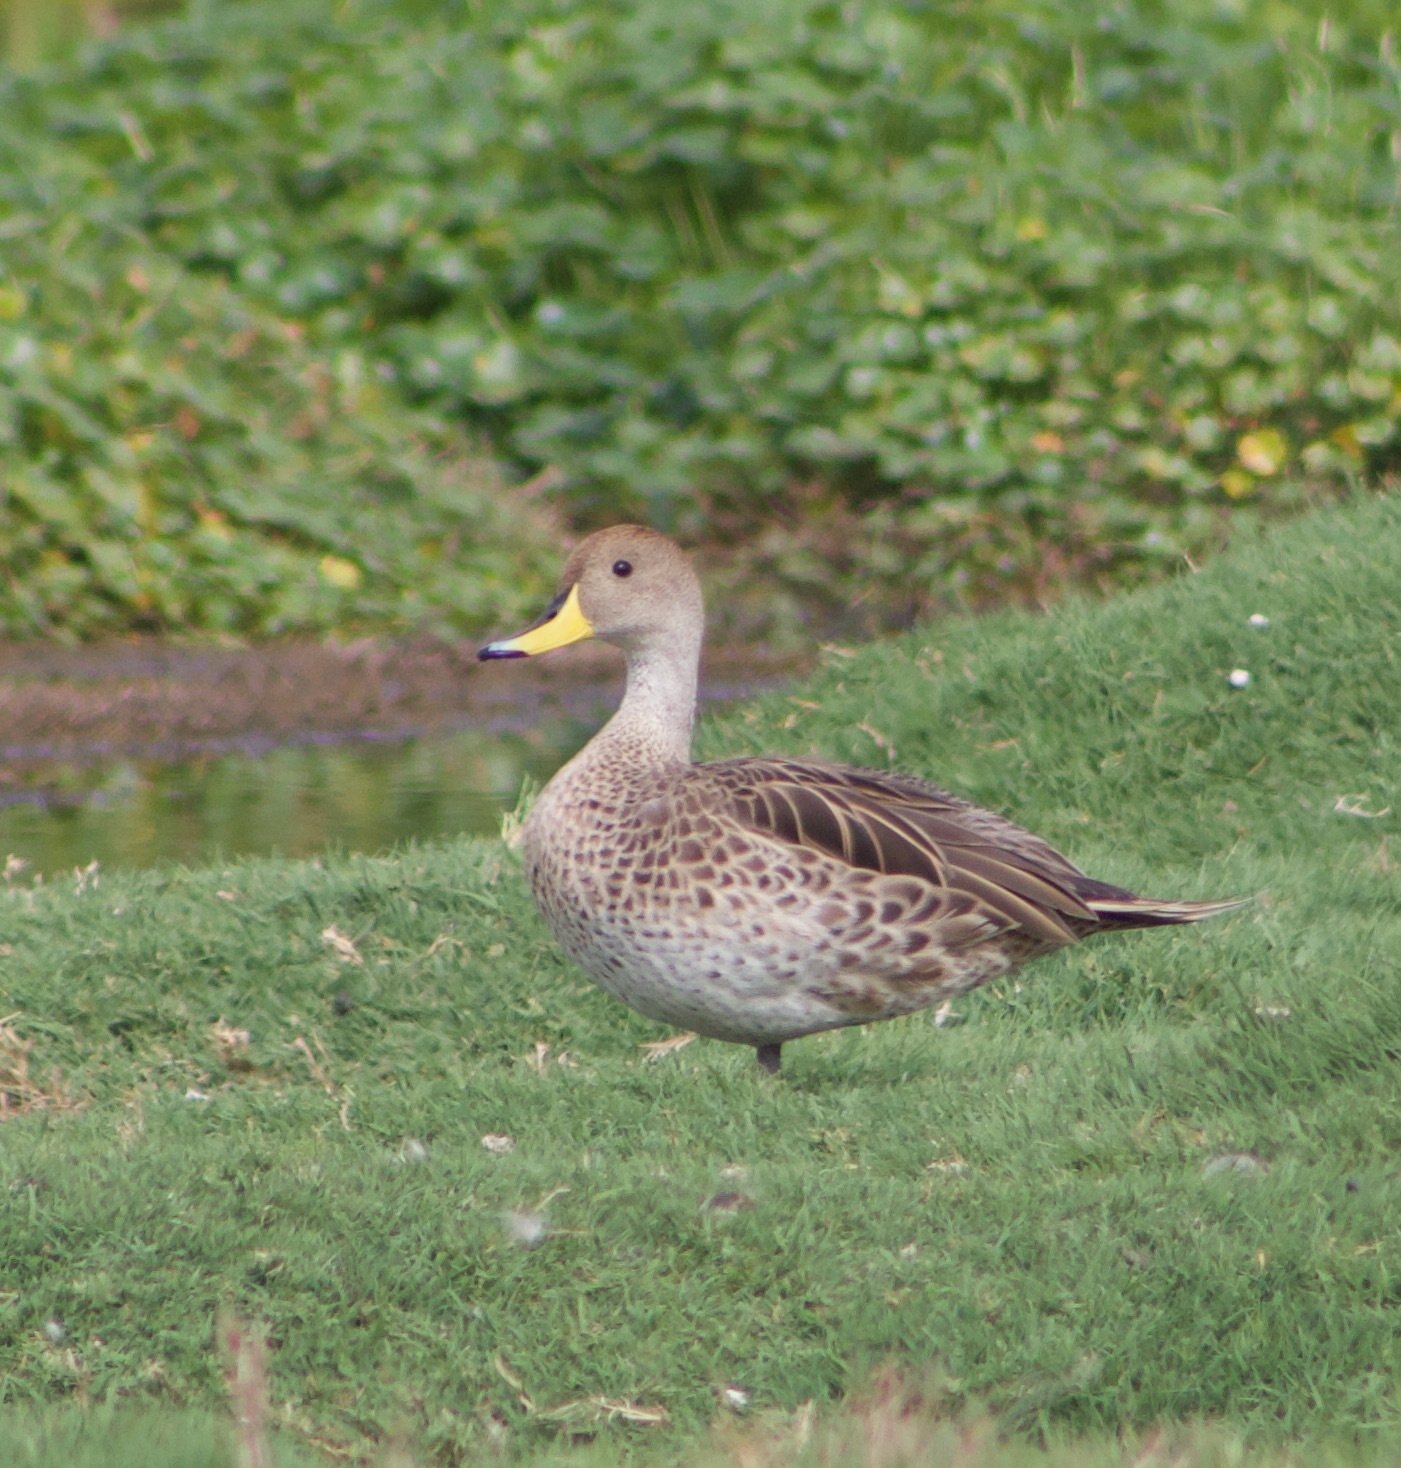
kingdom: Animalia
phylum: Chordata
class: Aves
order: Anseriformes
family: Anatidae
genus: Anas
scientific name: Anas georgica
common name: Yellow-billed pintail
